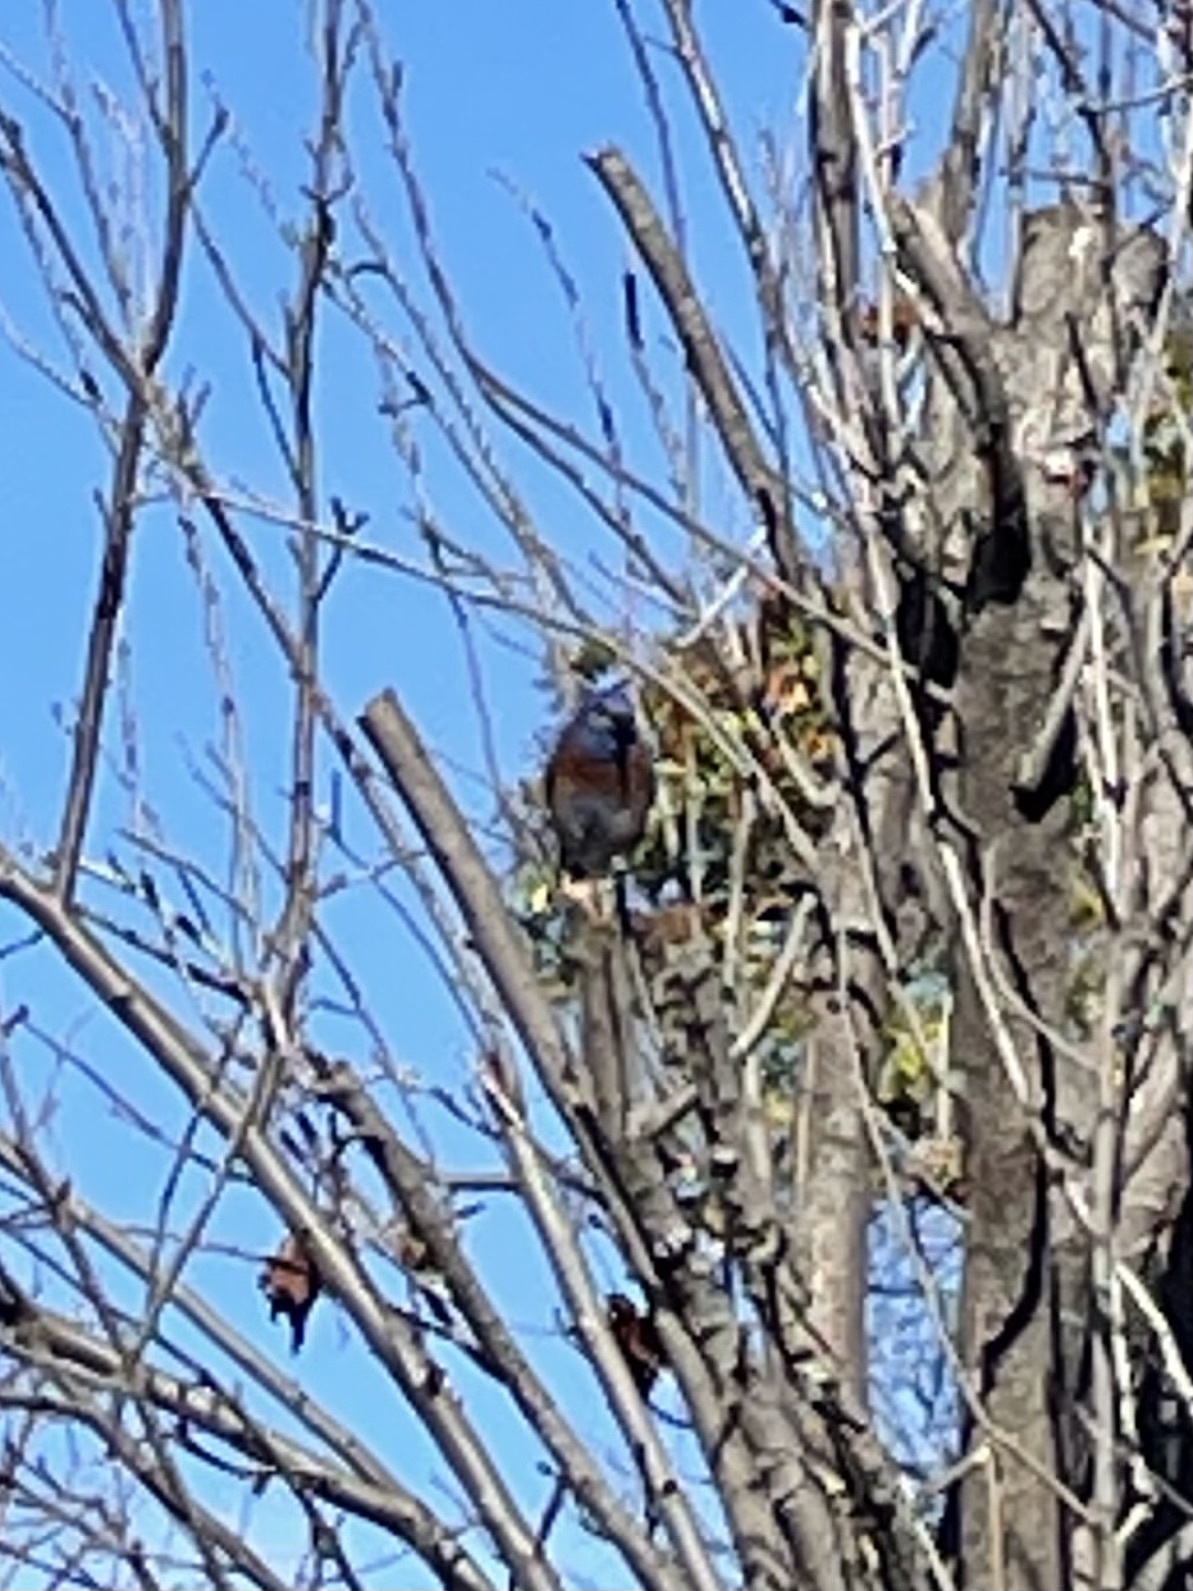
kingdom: Animalia
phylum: Chordata
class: Aves
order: Passeriformes
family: Turdidae
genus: Sialia
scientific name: Sialia mexicana
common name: Western bluebird
